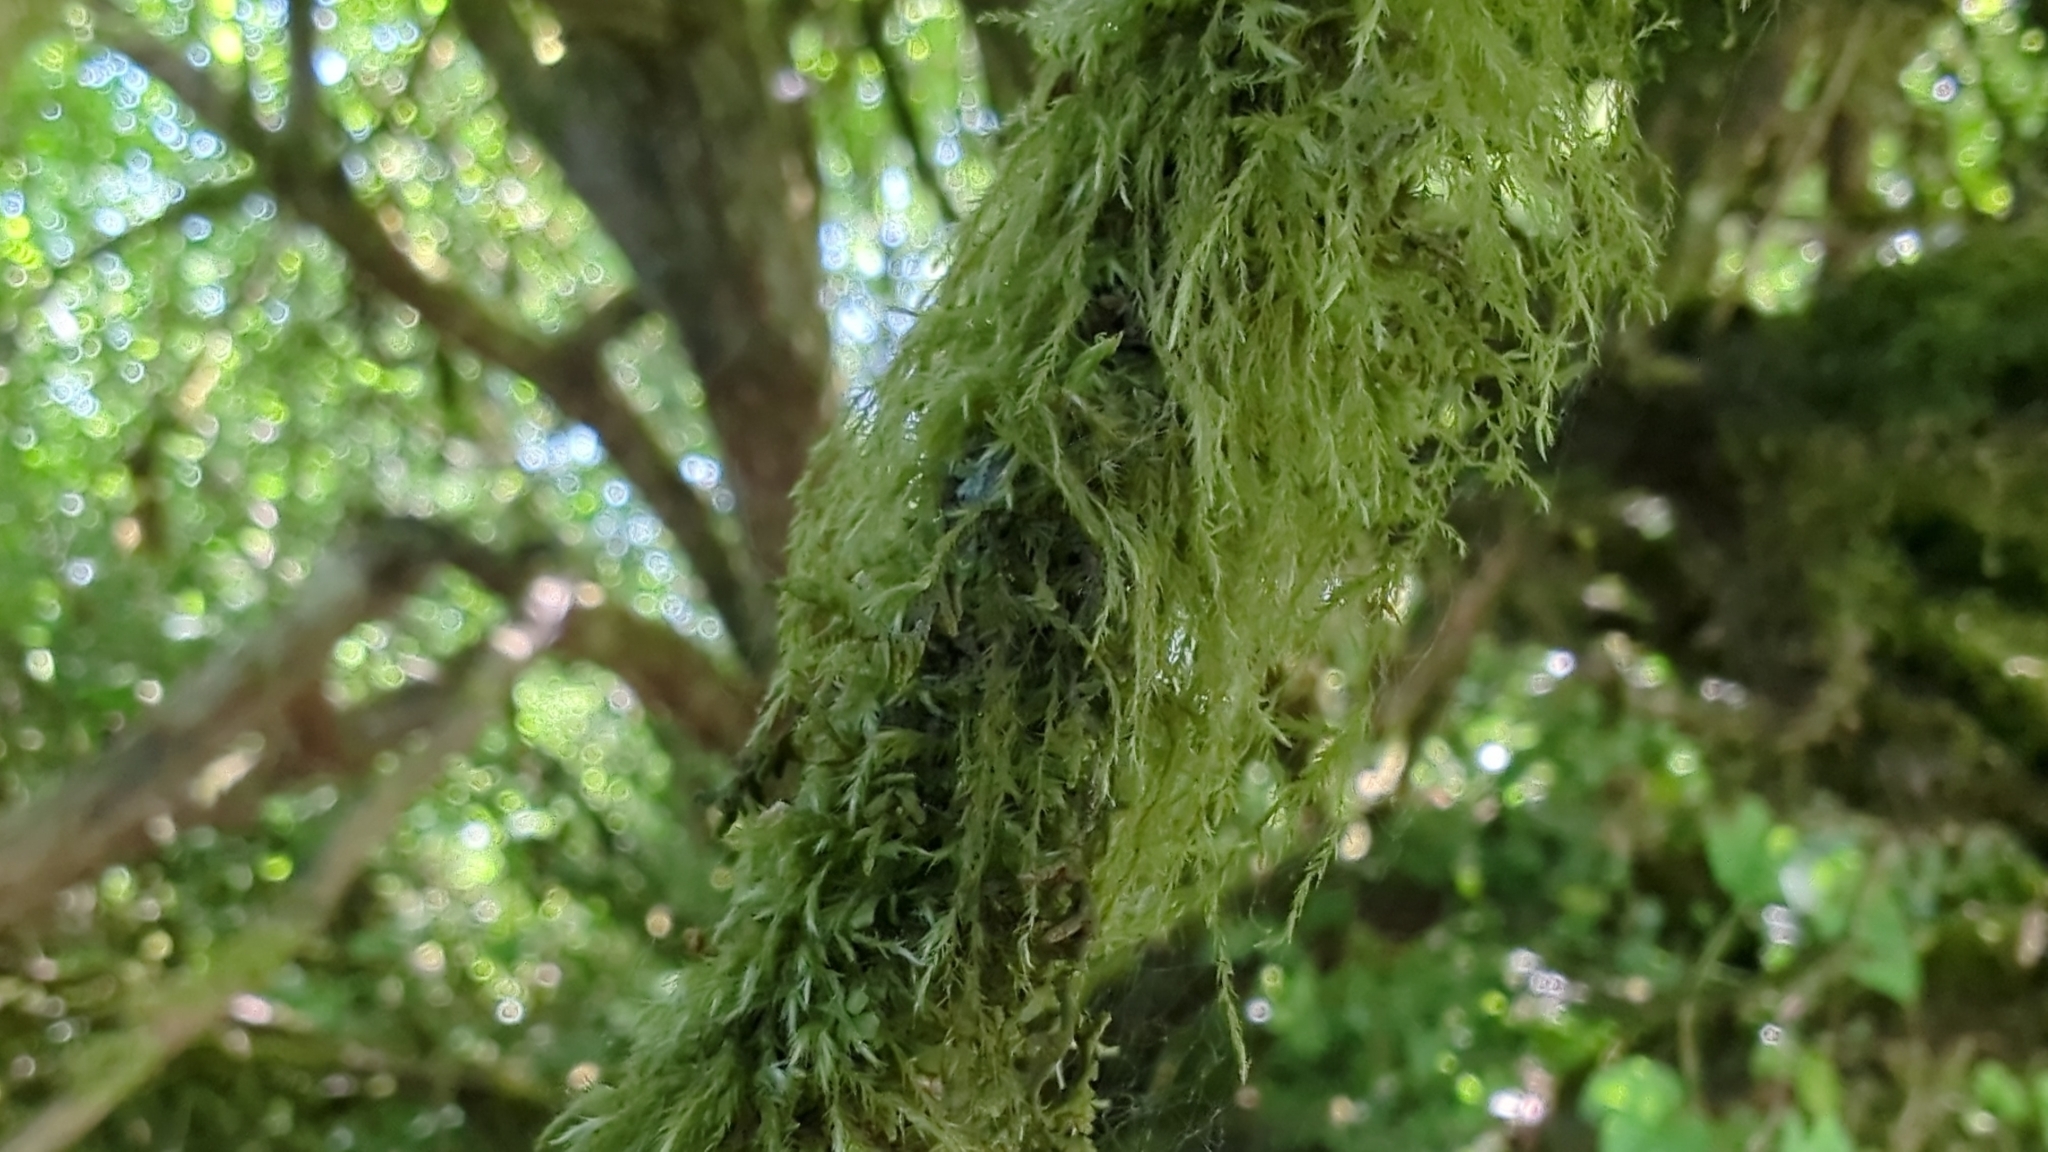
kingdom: Plantae
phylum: Bryophyta
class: Bryopsida
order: Hypnales
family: Lembophyllaceae
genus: Pseudisothecium
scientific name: Pseudisothecium stoloniferum
